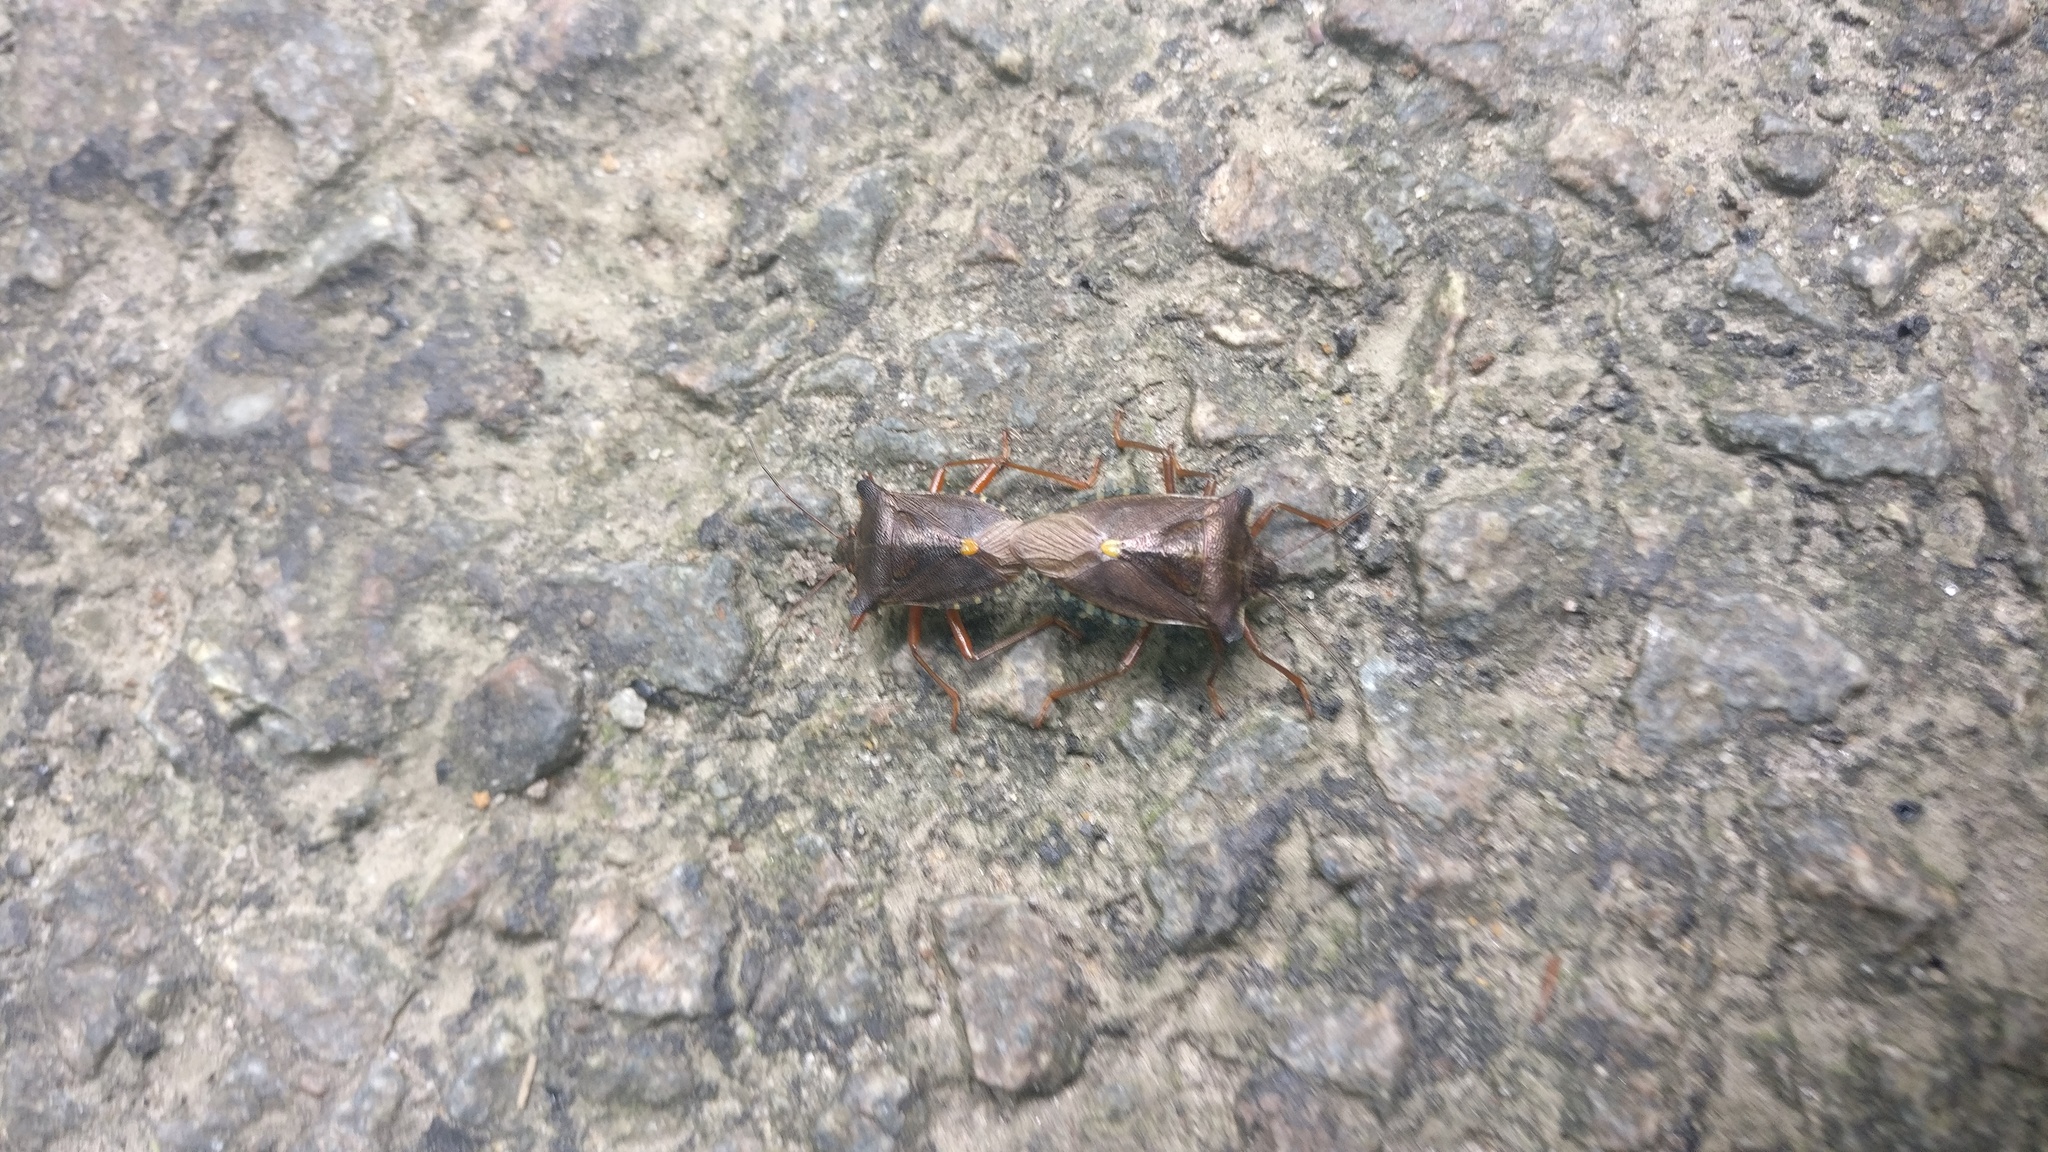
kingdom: Animalia
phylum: Arthropoda
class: Insecta
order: Hemiptera
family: Pentatomidae
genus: Pentatoma
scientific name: Pentatoma rufipes
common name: Forest bug
